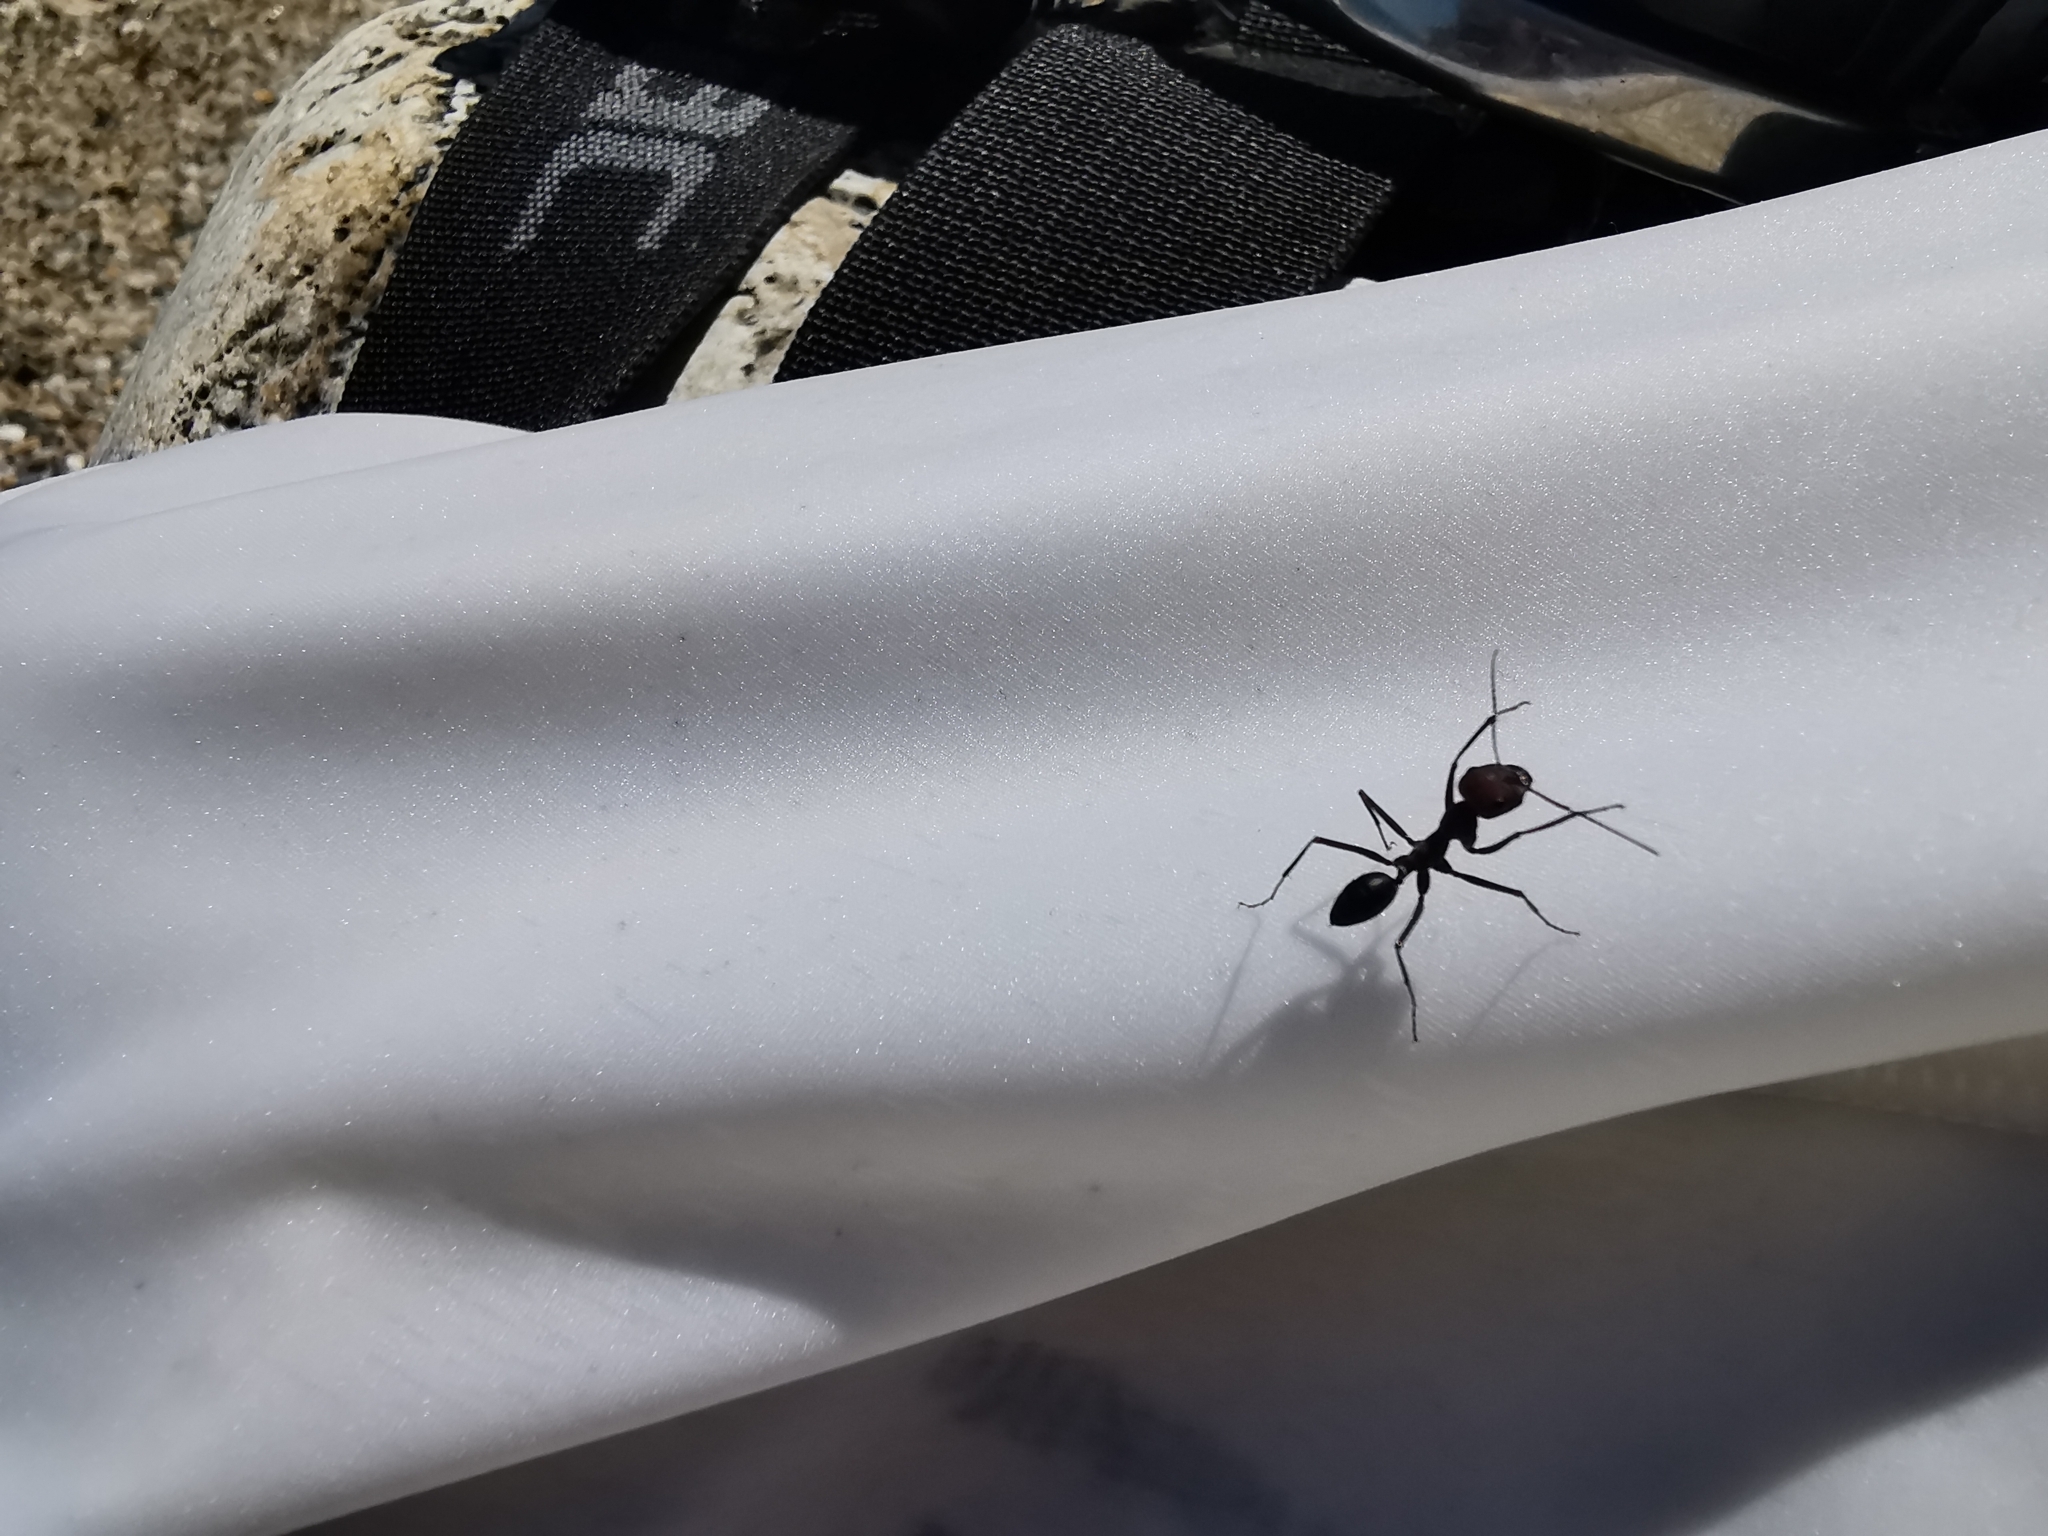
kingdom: Animalia
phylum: Arthropoda
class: Insecta
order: Hymenoptera
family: Formicidae
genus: Cataglyphis
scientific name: Cataglyphis nodus
